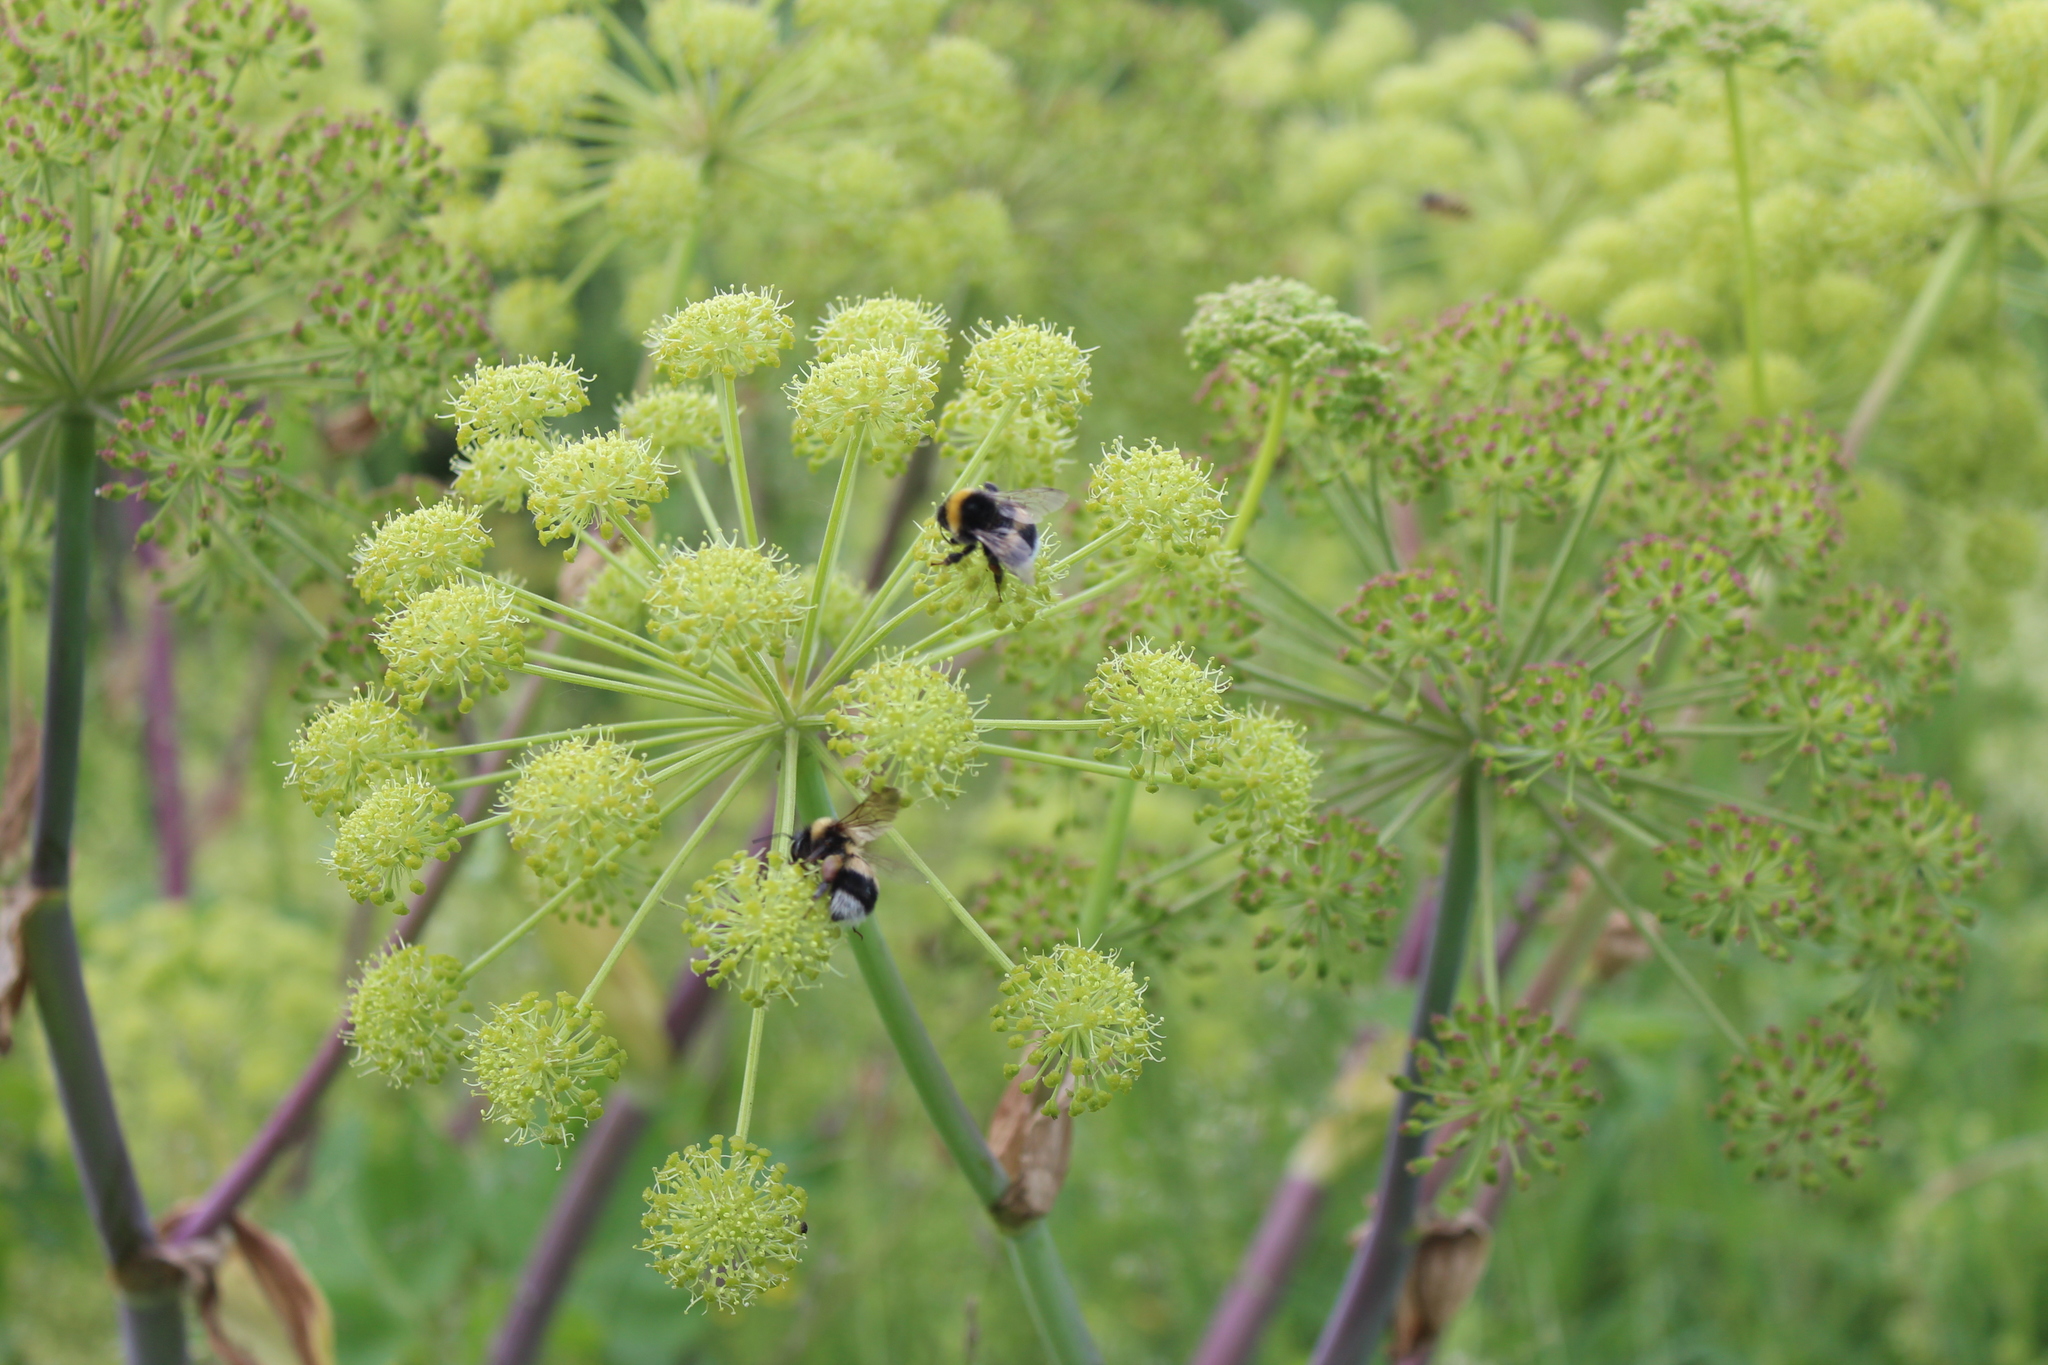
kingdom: Animalia
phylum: Arthropoda
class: Insecta
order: Hymenoptera
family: Apidae
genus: Bombus
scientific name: Bombus sporadicus
